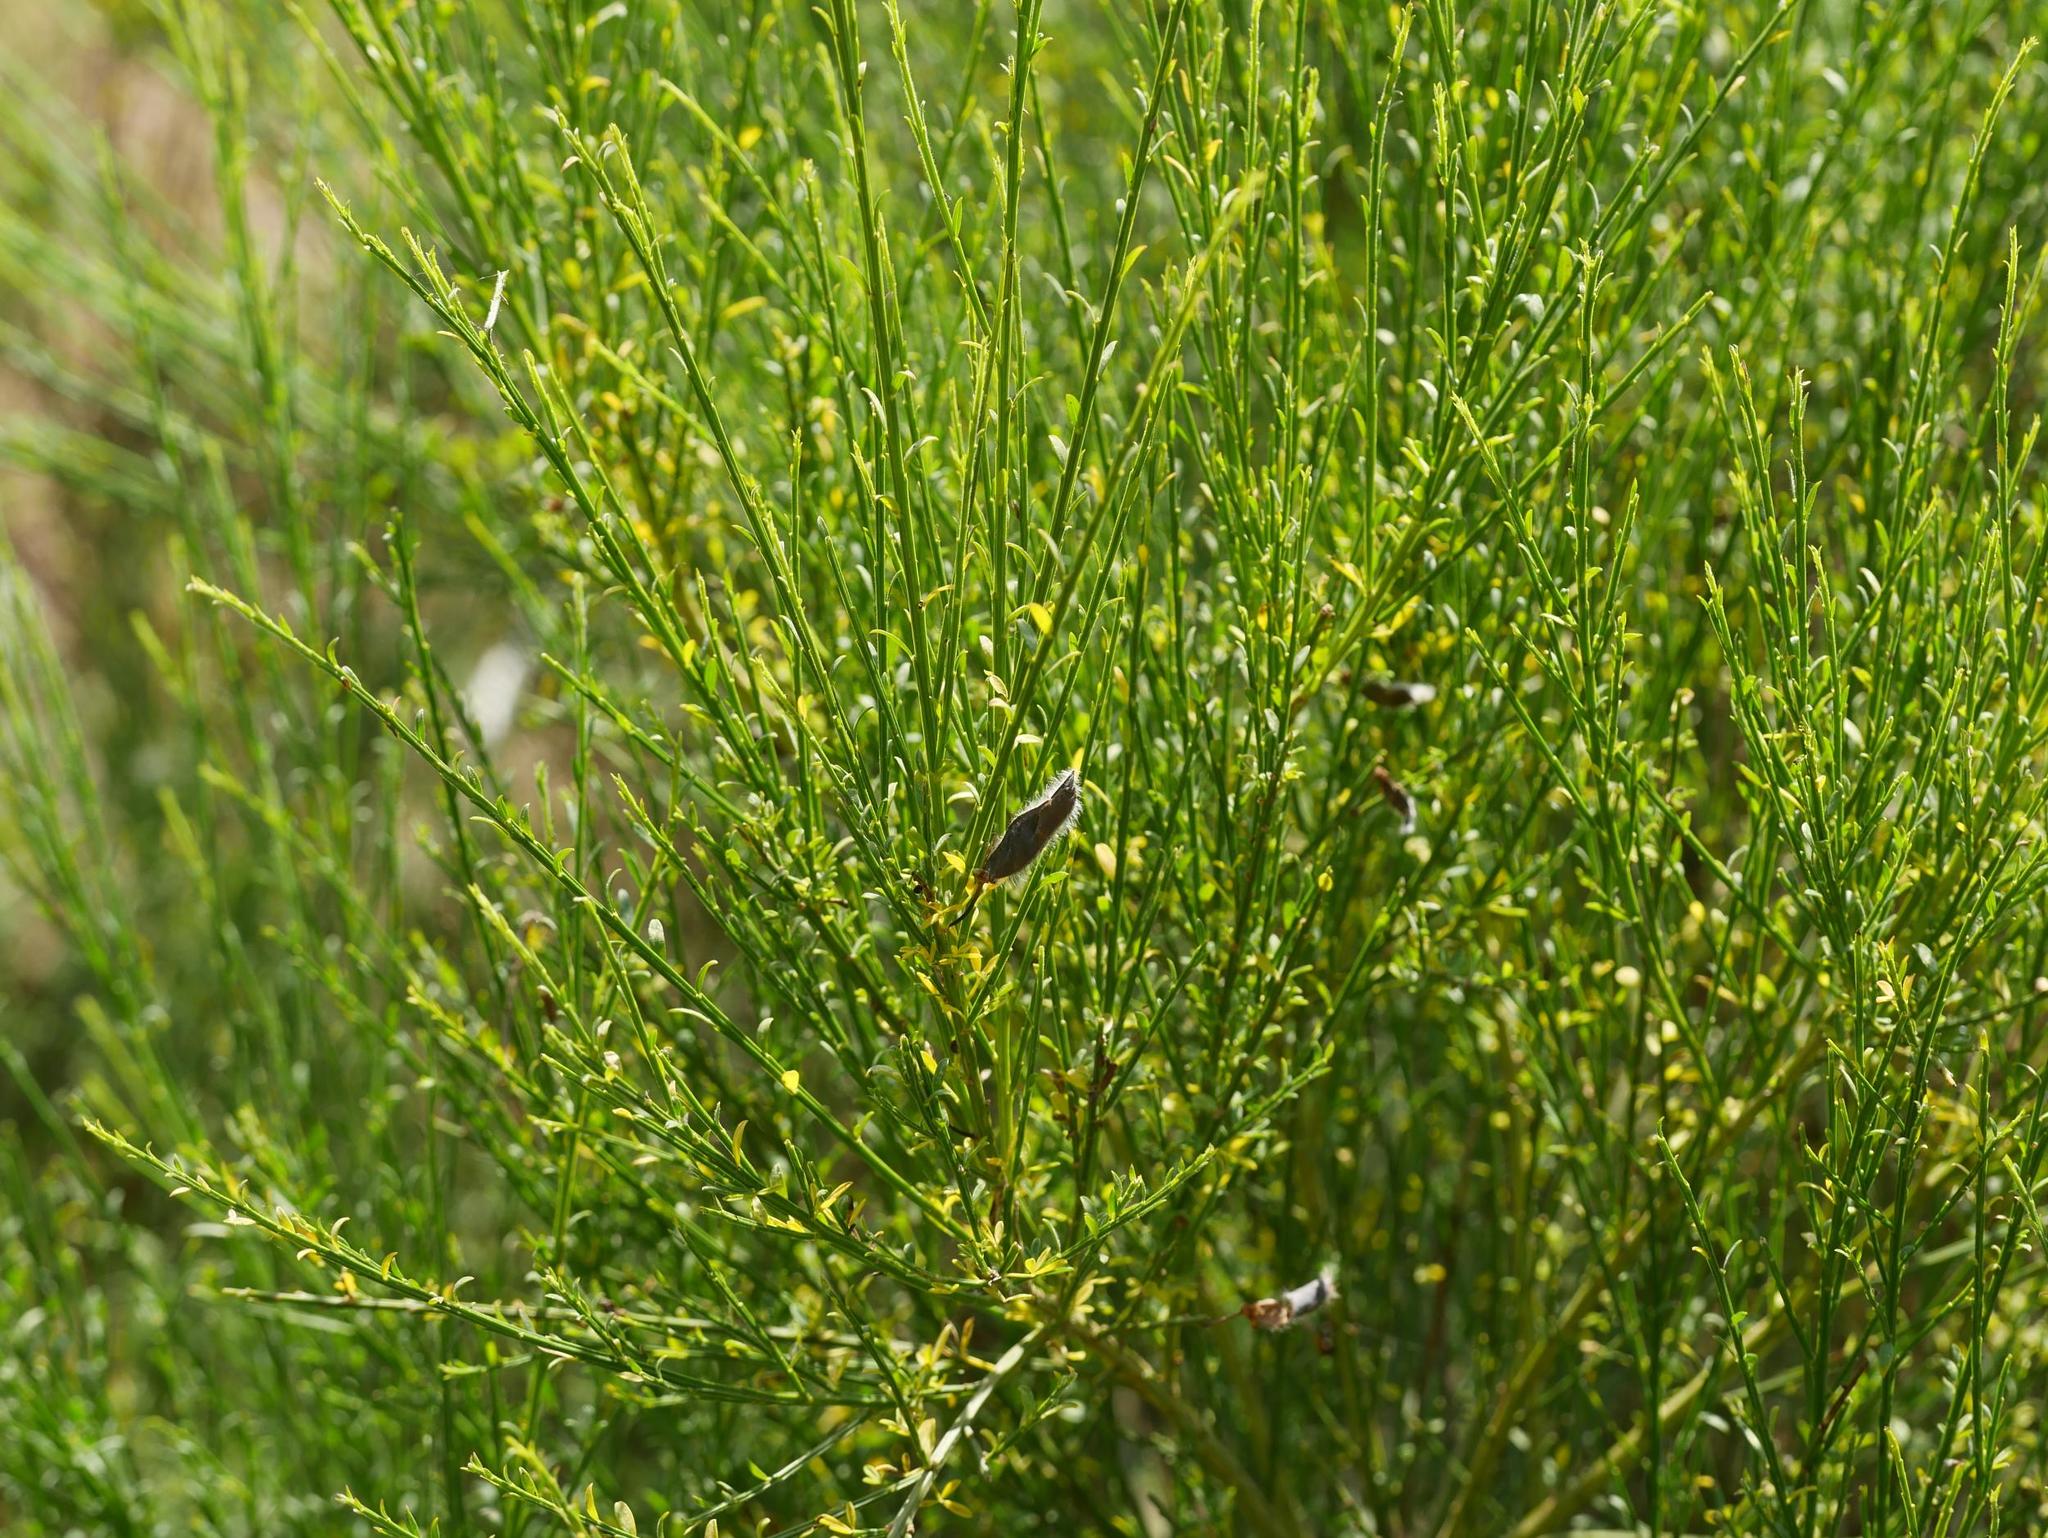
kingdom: Plantae
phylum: Tracheophyta
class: Magnoliopsida
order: Fabales
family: Fabaceae
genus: Cytisus
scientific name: Cytisus scoparius
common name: Scotch broom
